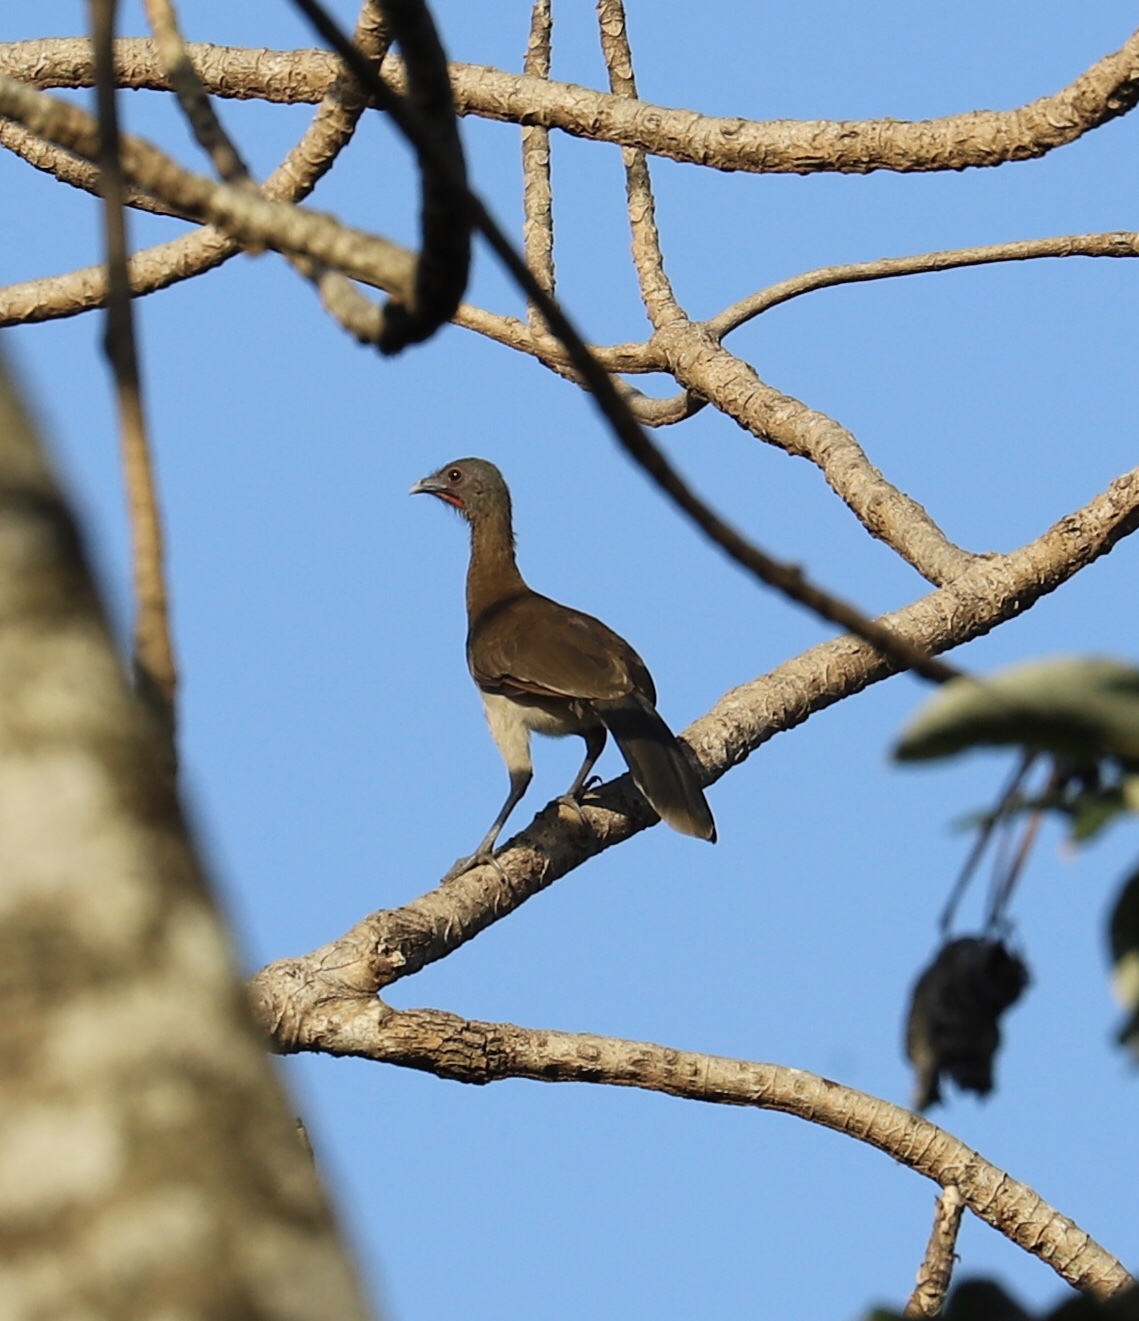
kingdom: Animalia
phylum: Chordata
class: Aves
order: Galliformes
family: Cracidae
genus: Ortalis
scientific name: Ortalis cinereiceps
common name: Grey-headed chachalaca
